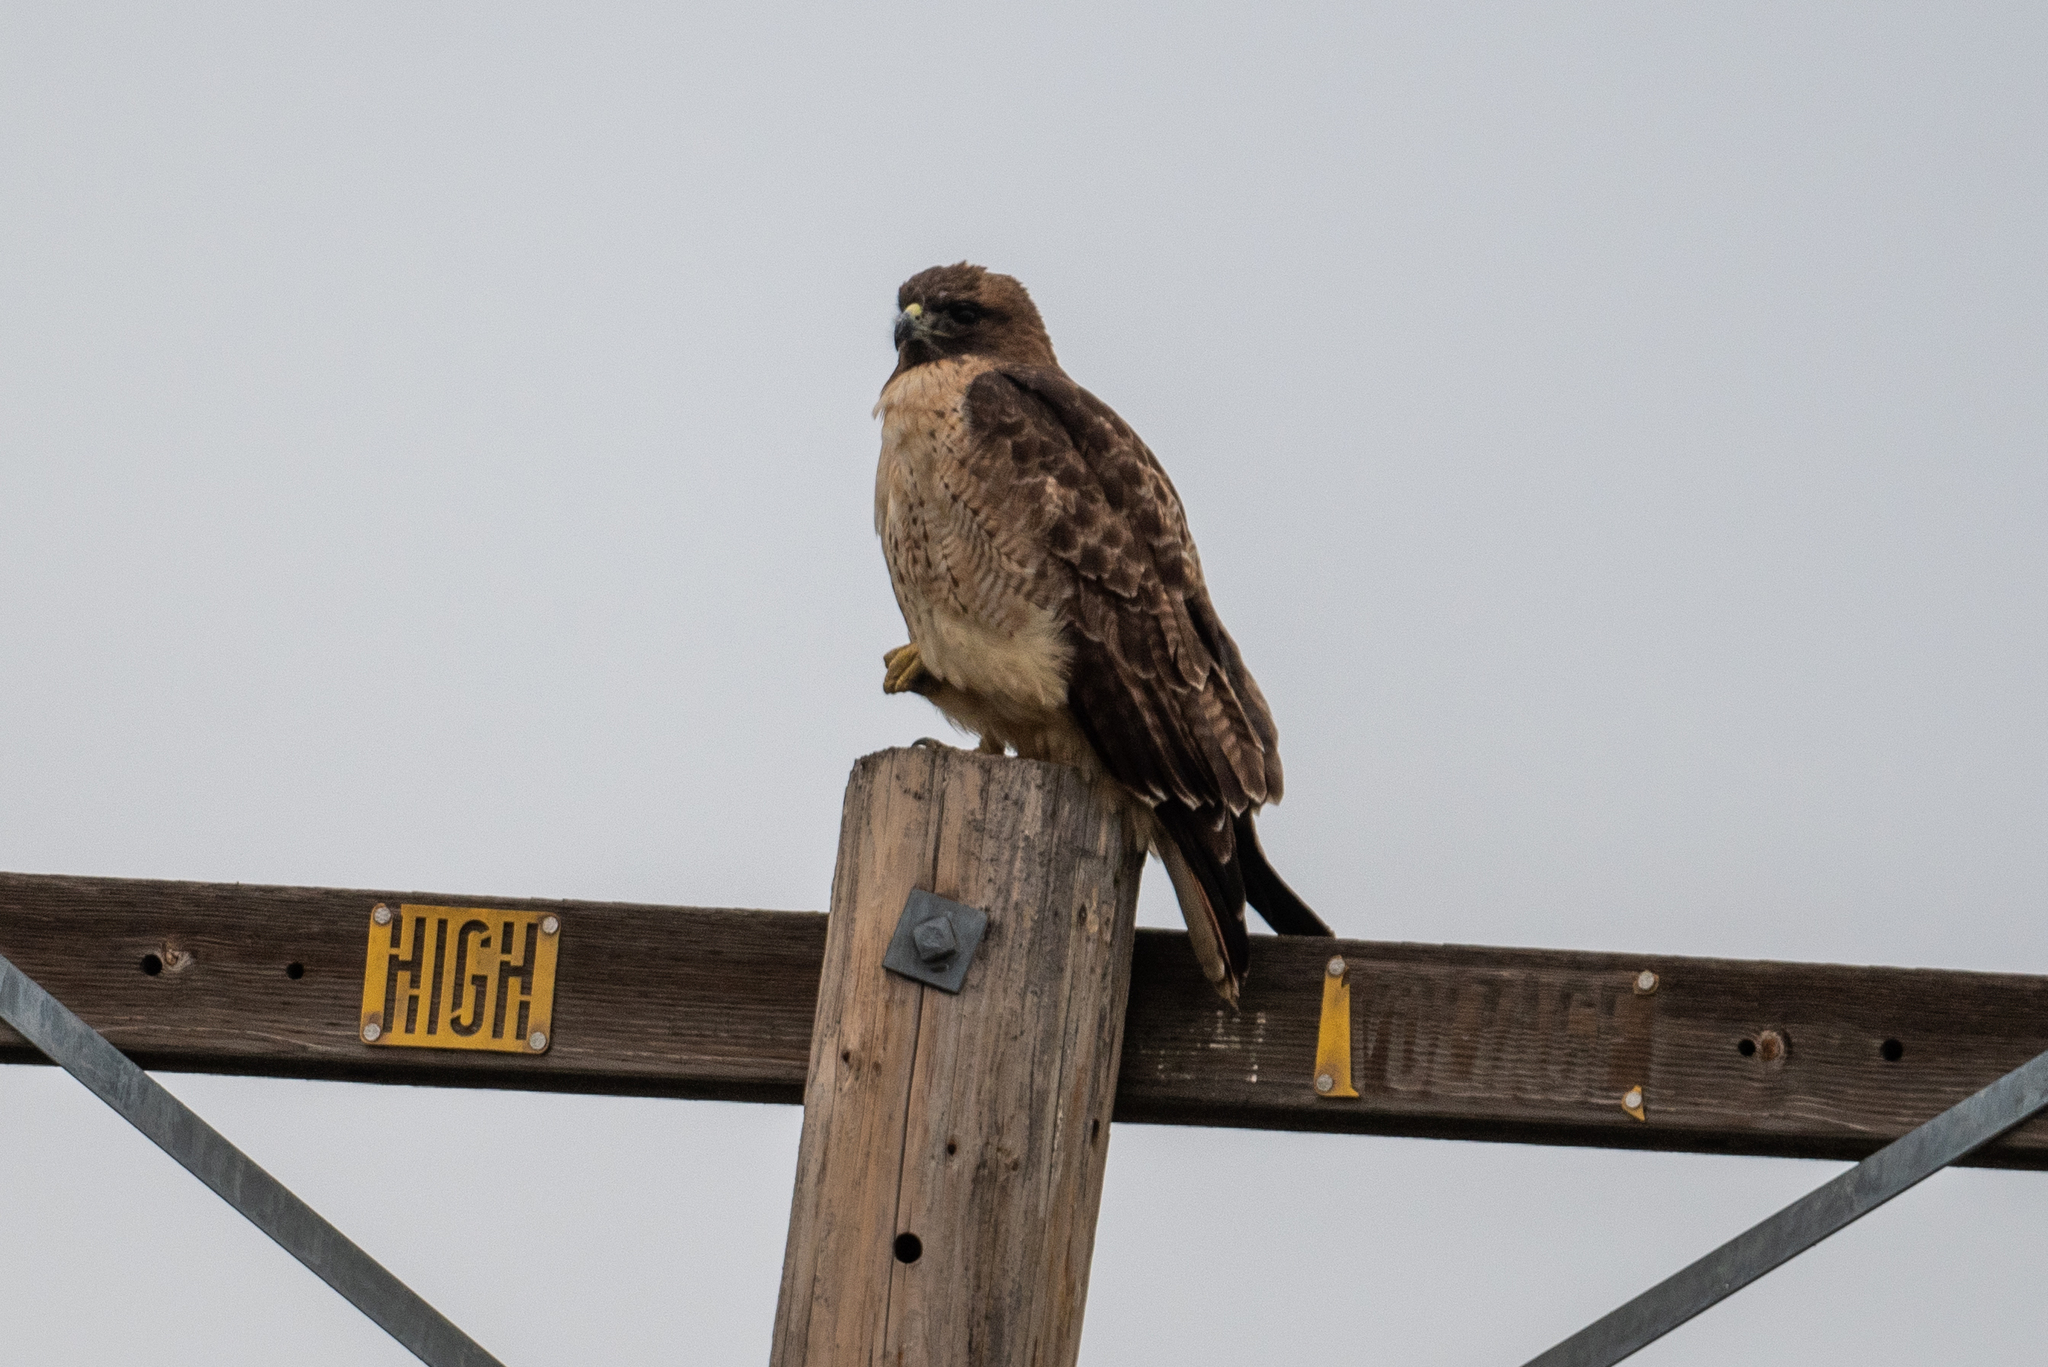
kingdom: Animalia
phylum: Chordata
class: Aves
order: Accipitriformes
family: Accipitridae
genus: Buteo
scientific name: Buteo jamaicensis
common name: Red-tailed hawk
